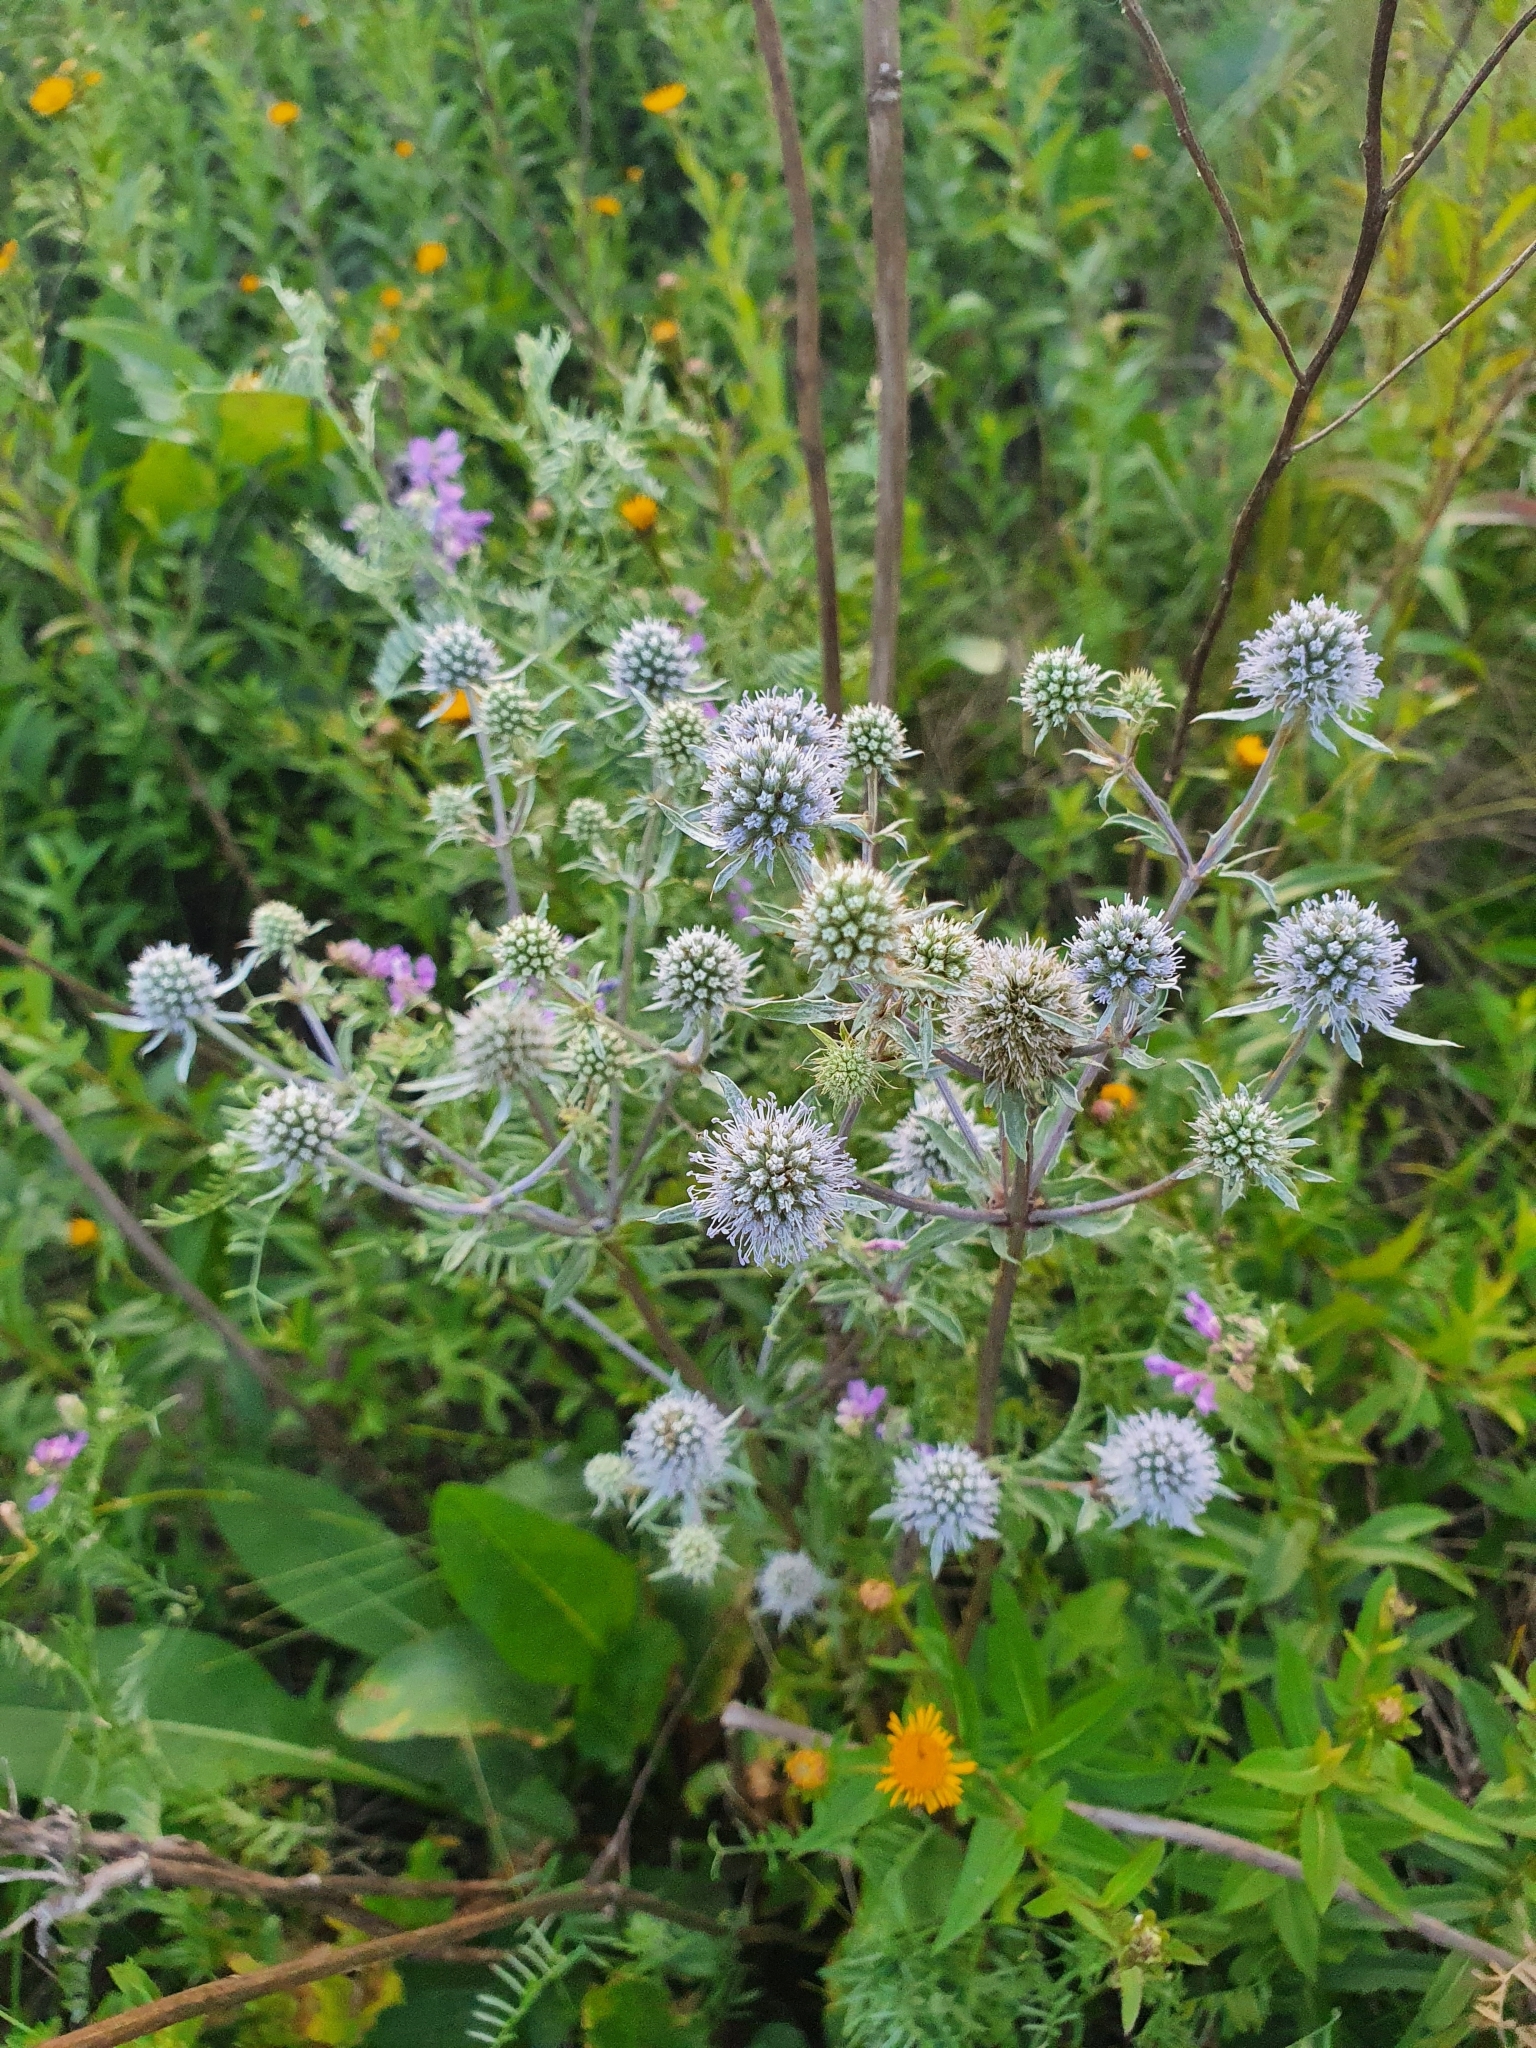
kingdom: Plantae
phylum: Tracheophyta
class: Magnoliopsida
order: Apiales
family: Apiaceae
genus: Eryngium
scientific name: Eryngium planum
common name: Blue eryngo
